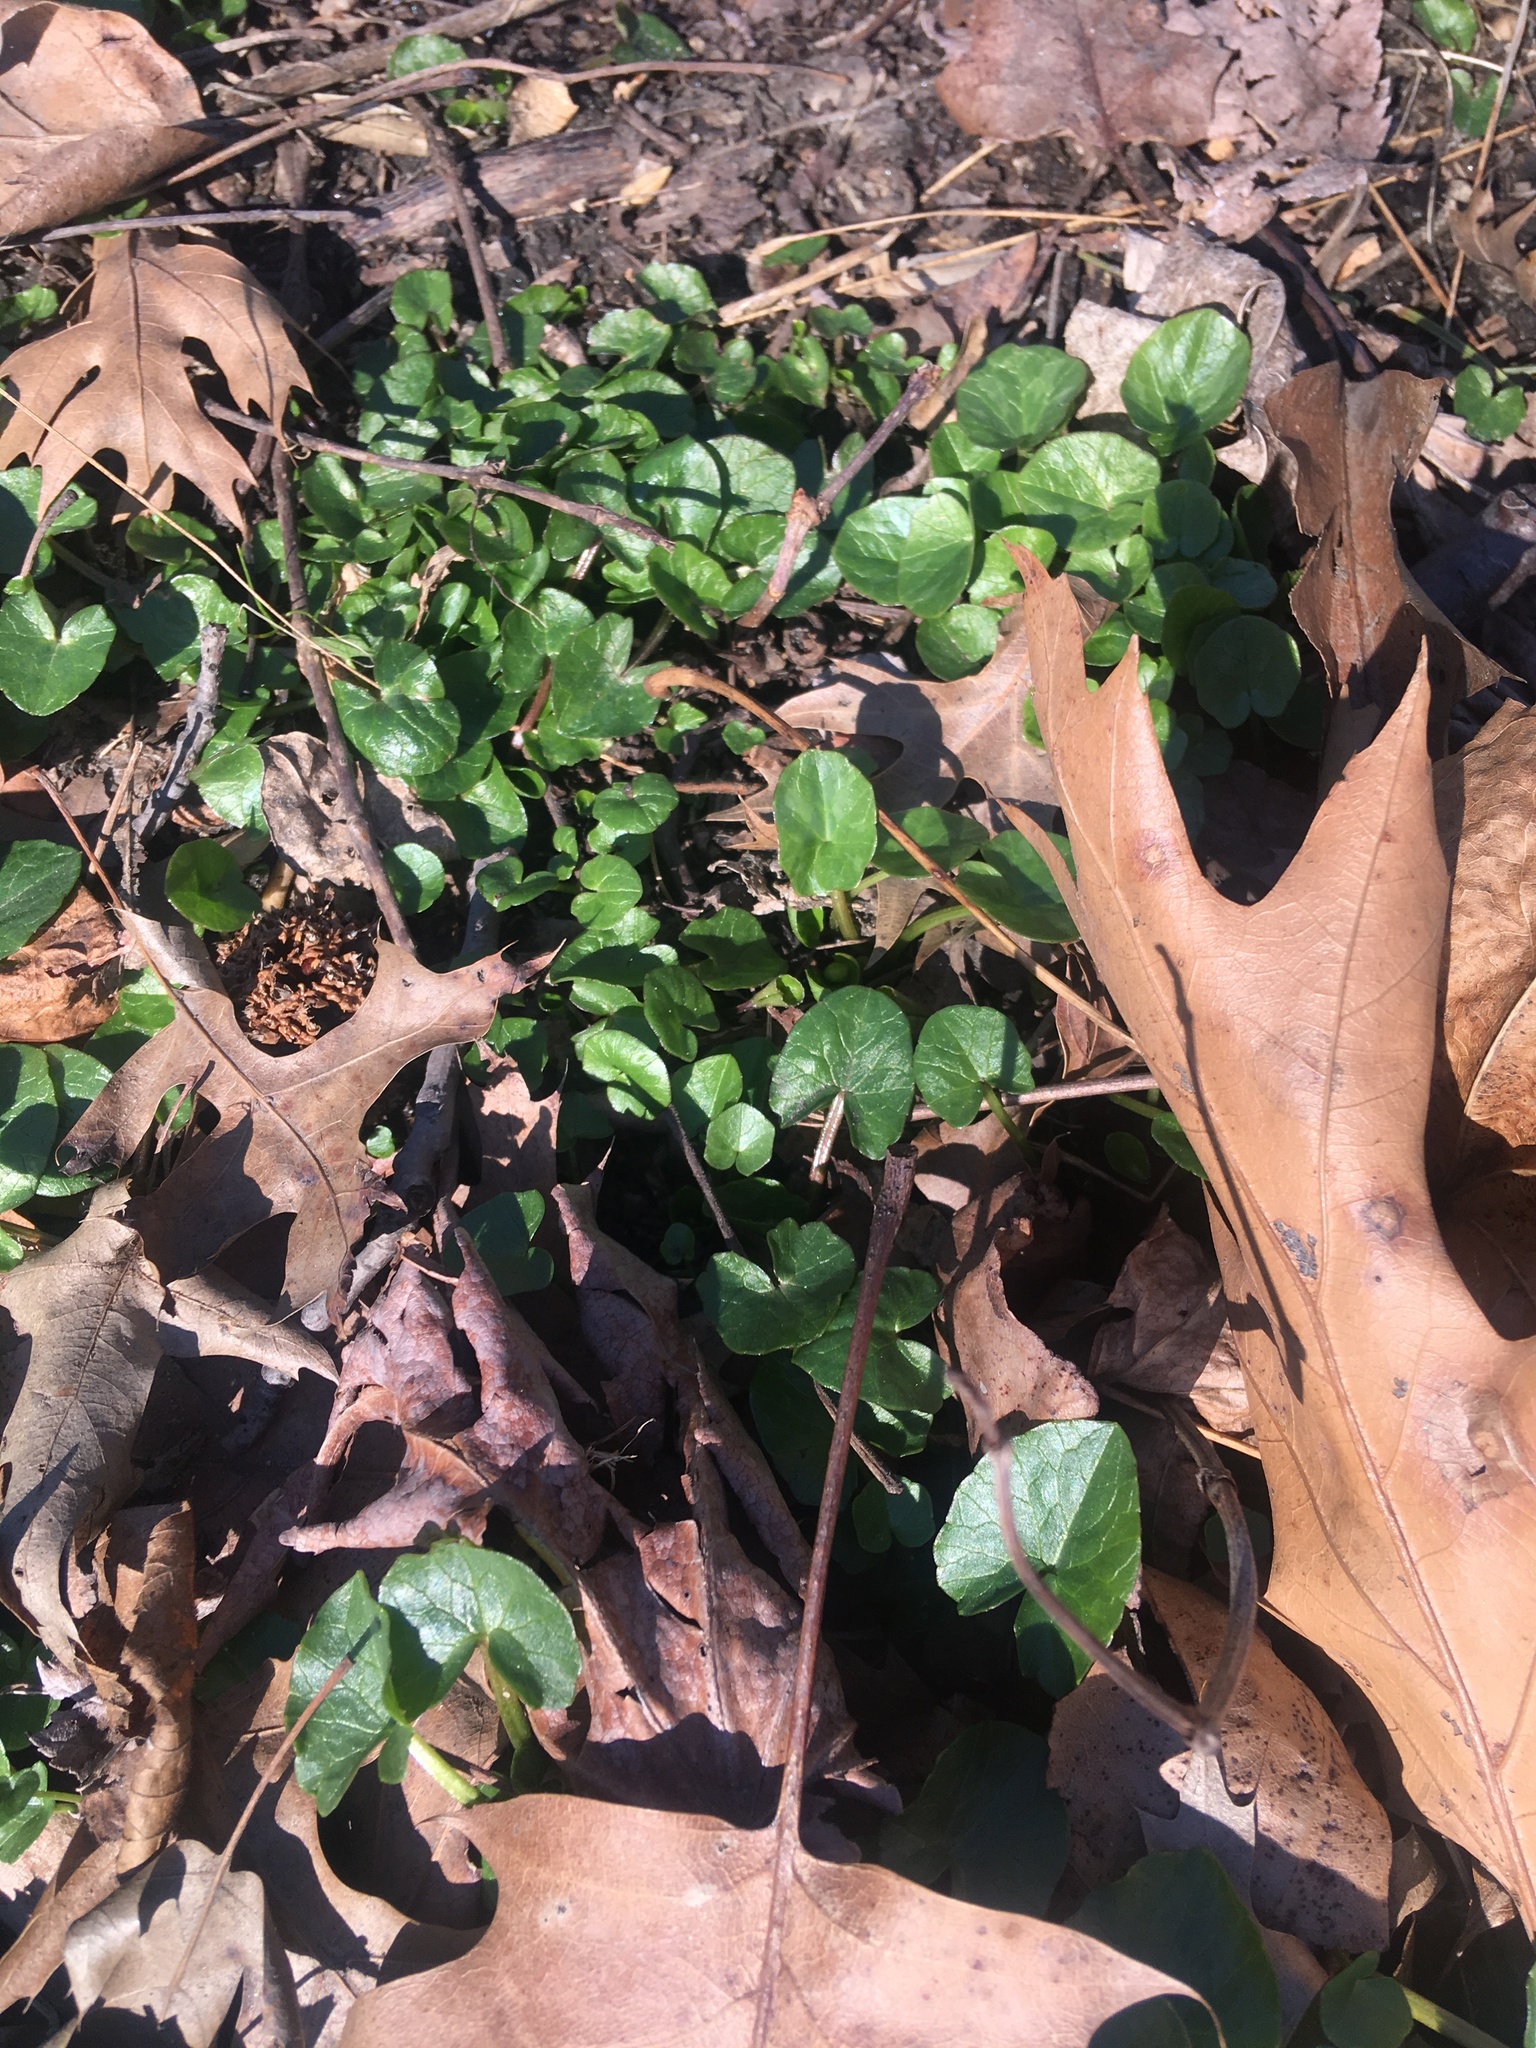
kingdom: Plantae
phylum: Tracheophyta
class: Magnoliopsida
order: Ranunculales
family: Ranunculaceae
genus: Ficaria
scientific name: Ficaria verna
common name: Lesser celandine
